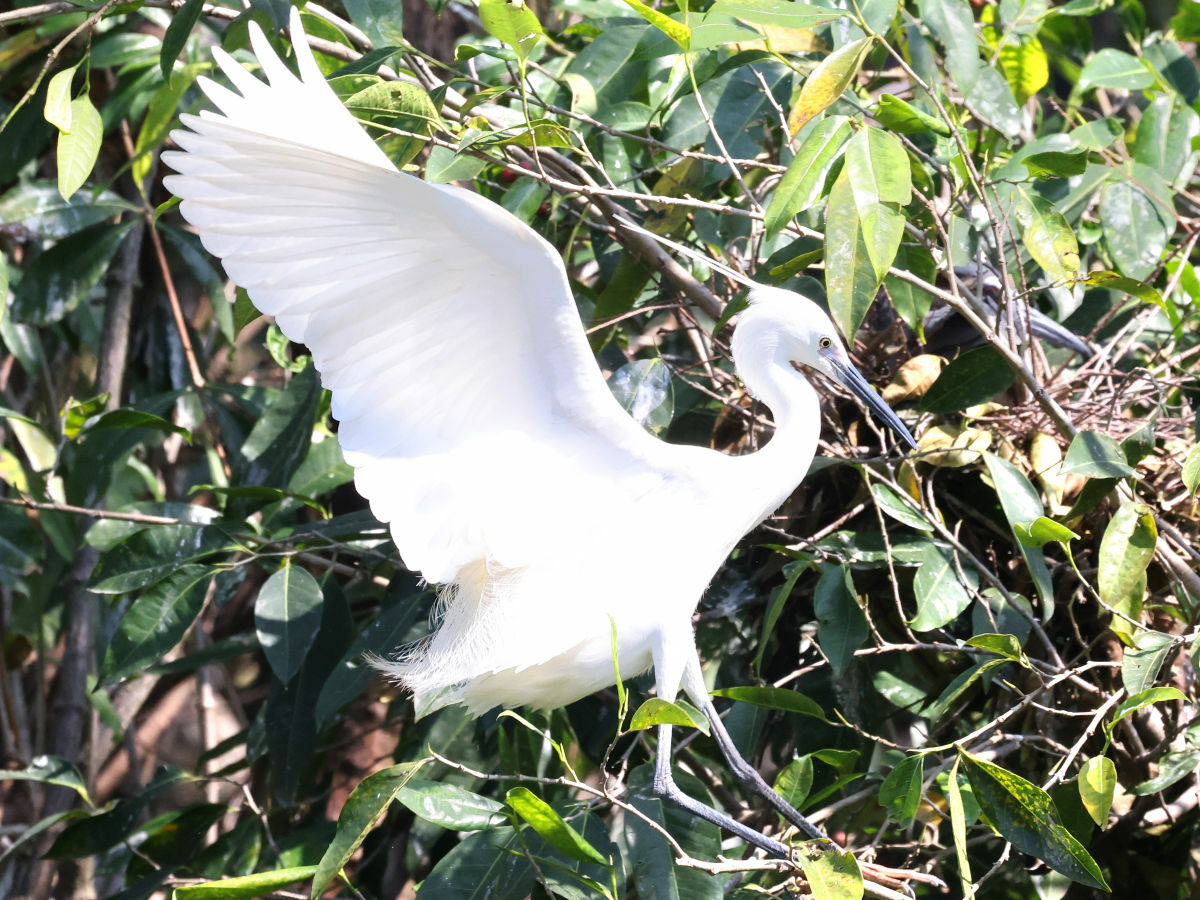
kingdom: Animalia
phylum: Chordata
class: Aves
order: Pelecaniformes
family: Ardeidae
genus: Egretta
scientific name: Egretta garzetta
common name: Little egret
